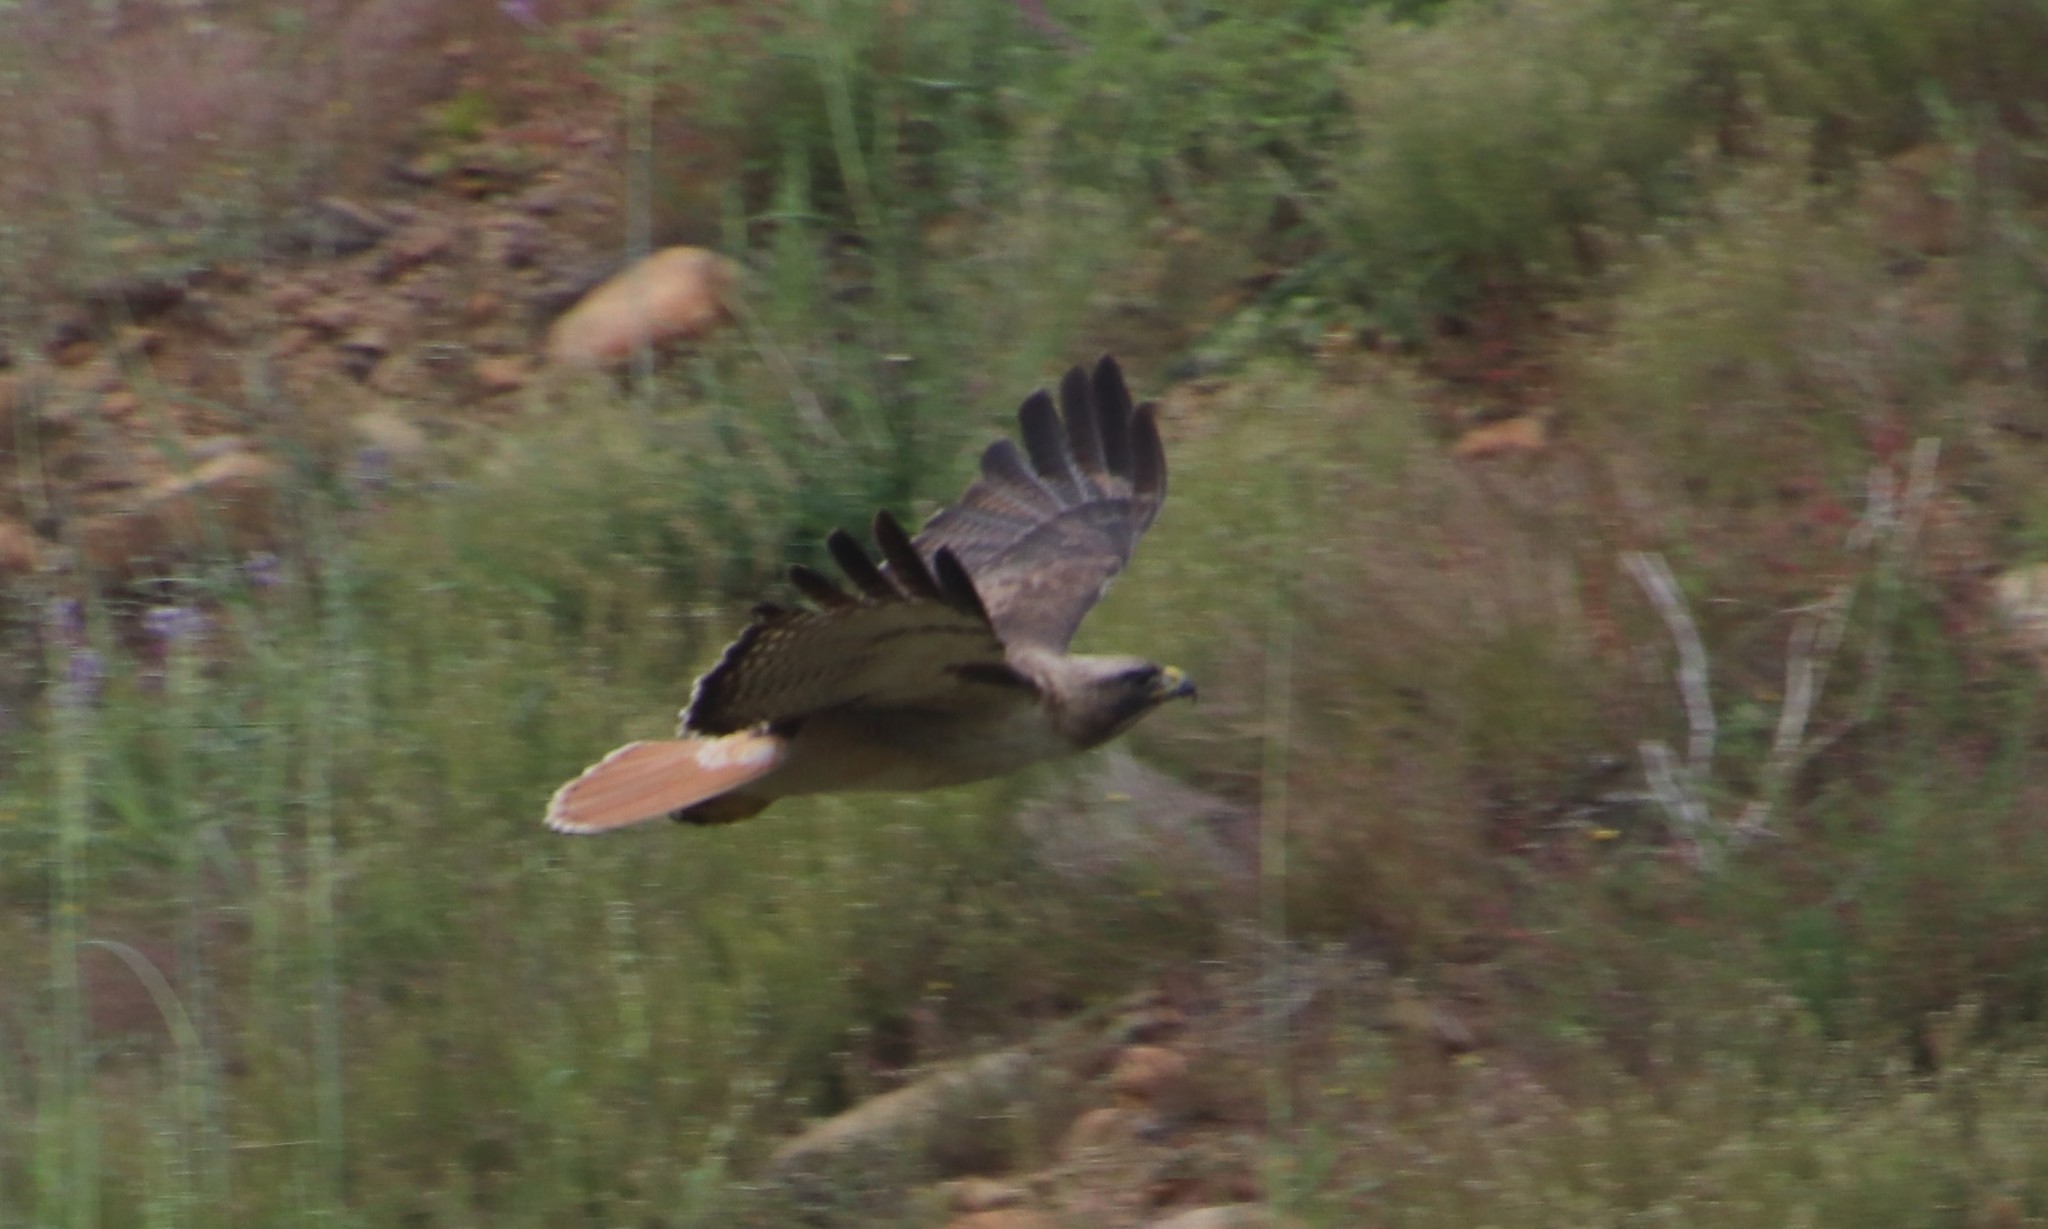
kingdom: Animalia
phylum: Chordata
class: Aves
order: Accipitriformes
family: Accipitridae
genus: Buteo
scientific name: Buteo jamaicensis
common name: Red-tailed hawk
